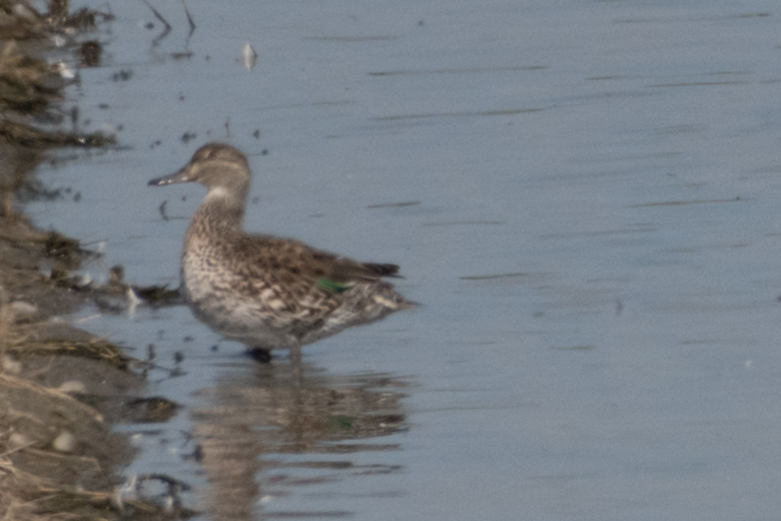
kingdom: Animalia
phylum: Chordata
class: Aves
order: Anseriformes
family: Anatidae
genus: Anas
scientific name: Anas crecca
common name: Eurasian teal
